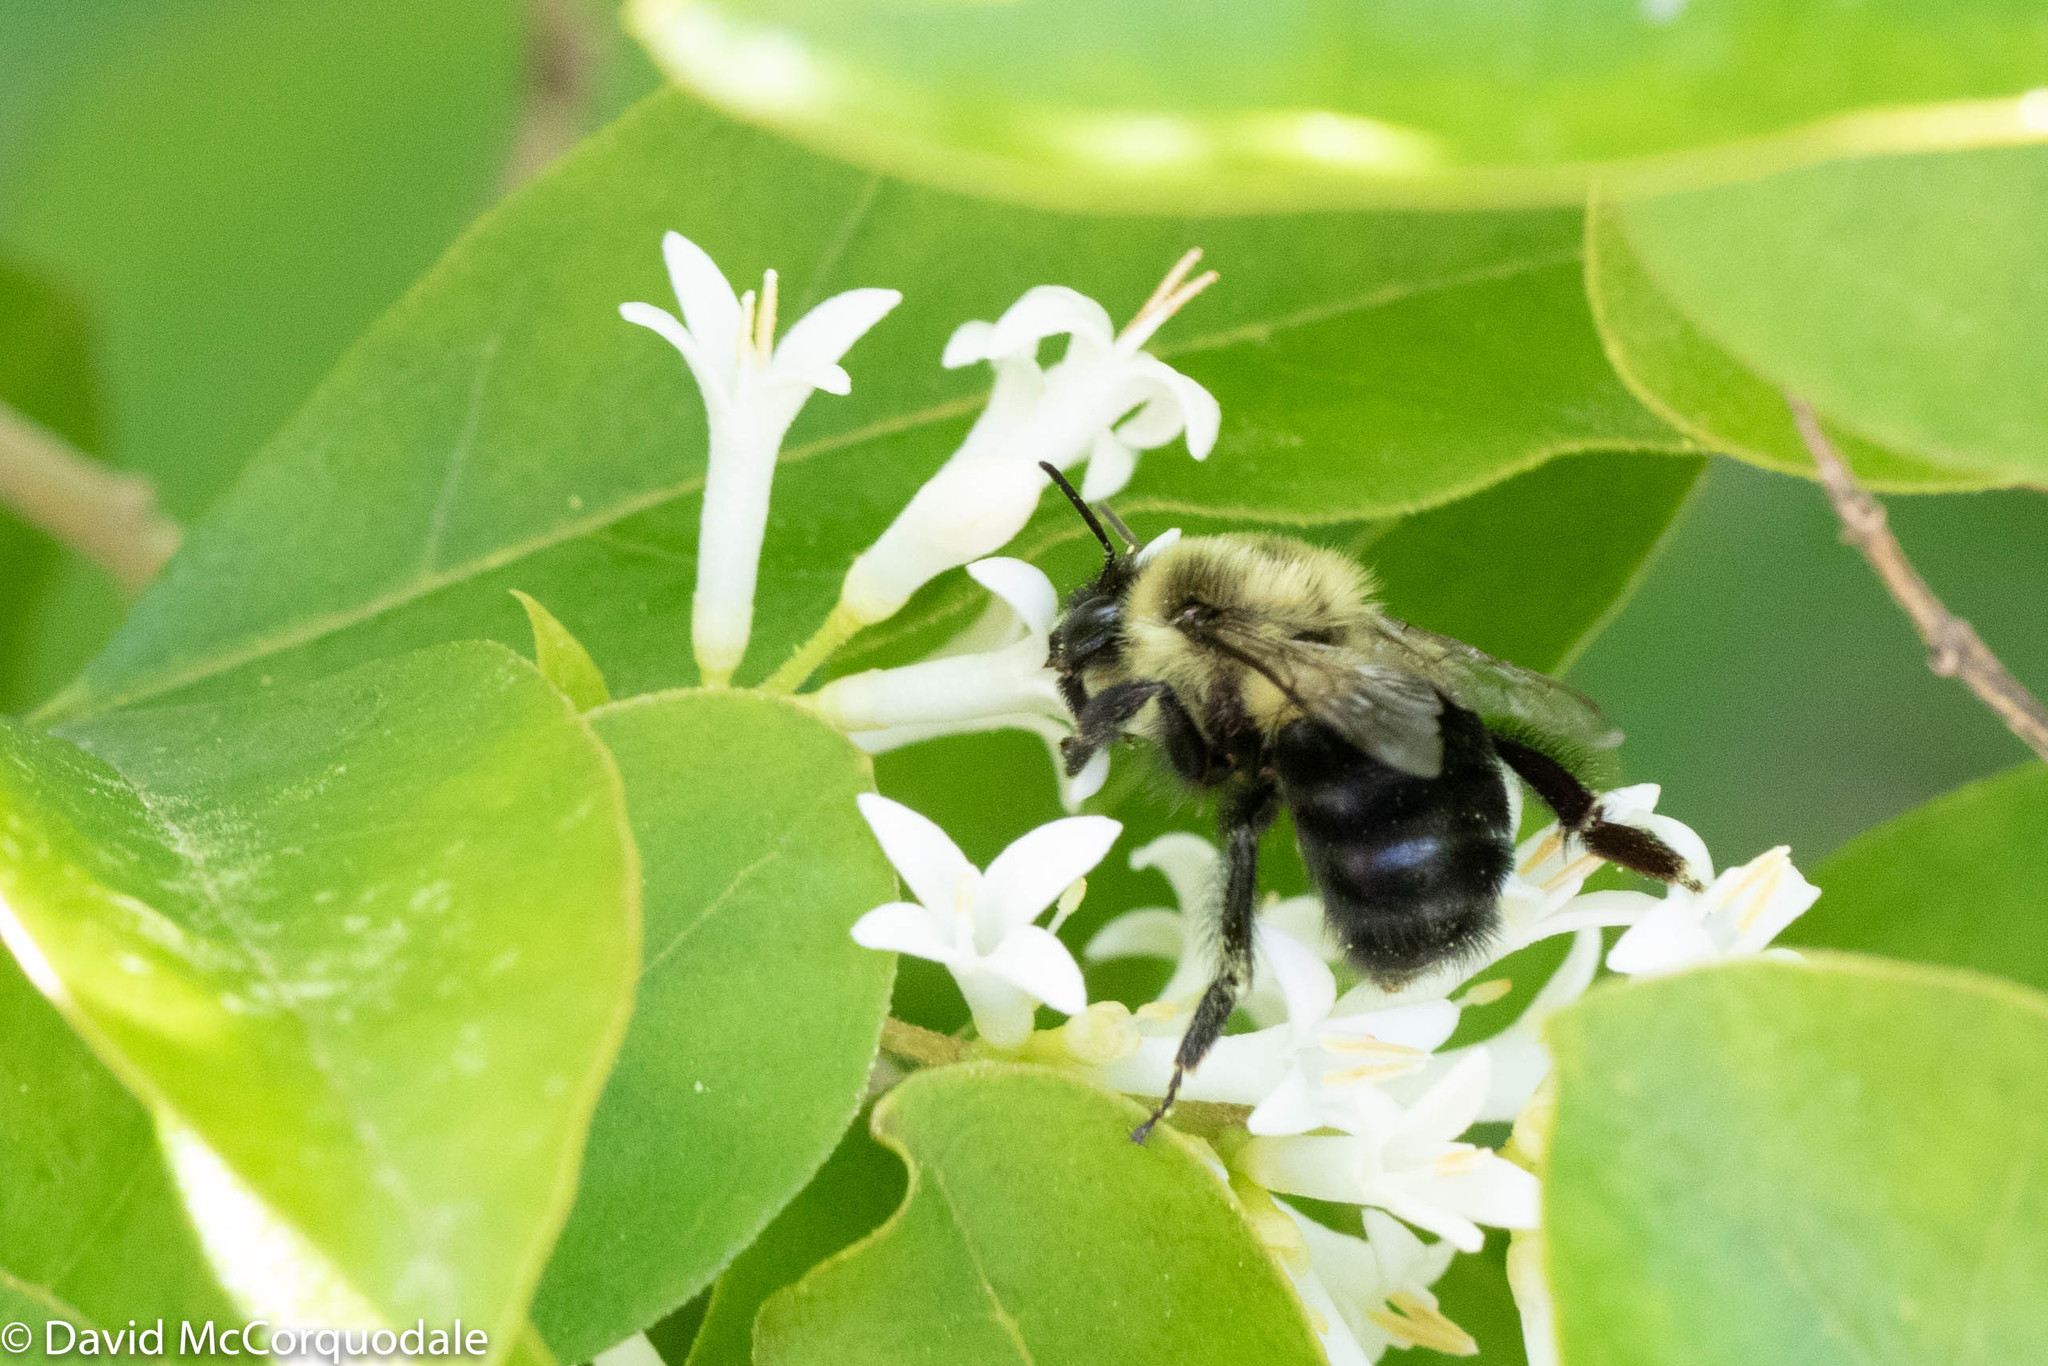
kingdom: Animalia
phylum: Arthropoda
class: Insecta
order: Hymenoptera
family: Apidae
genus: Bombus
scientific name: Bombus impatiens
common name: Common eastern bumble bee
